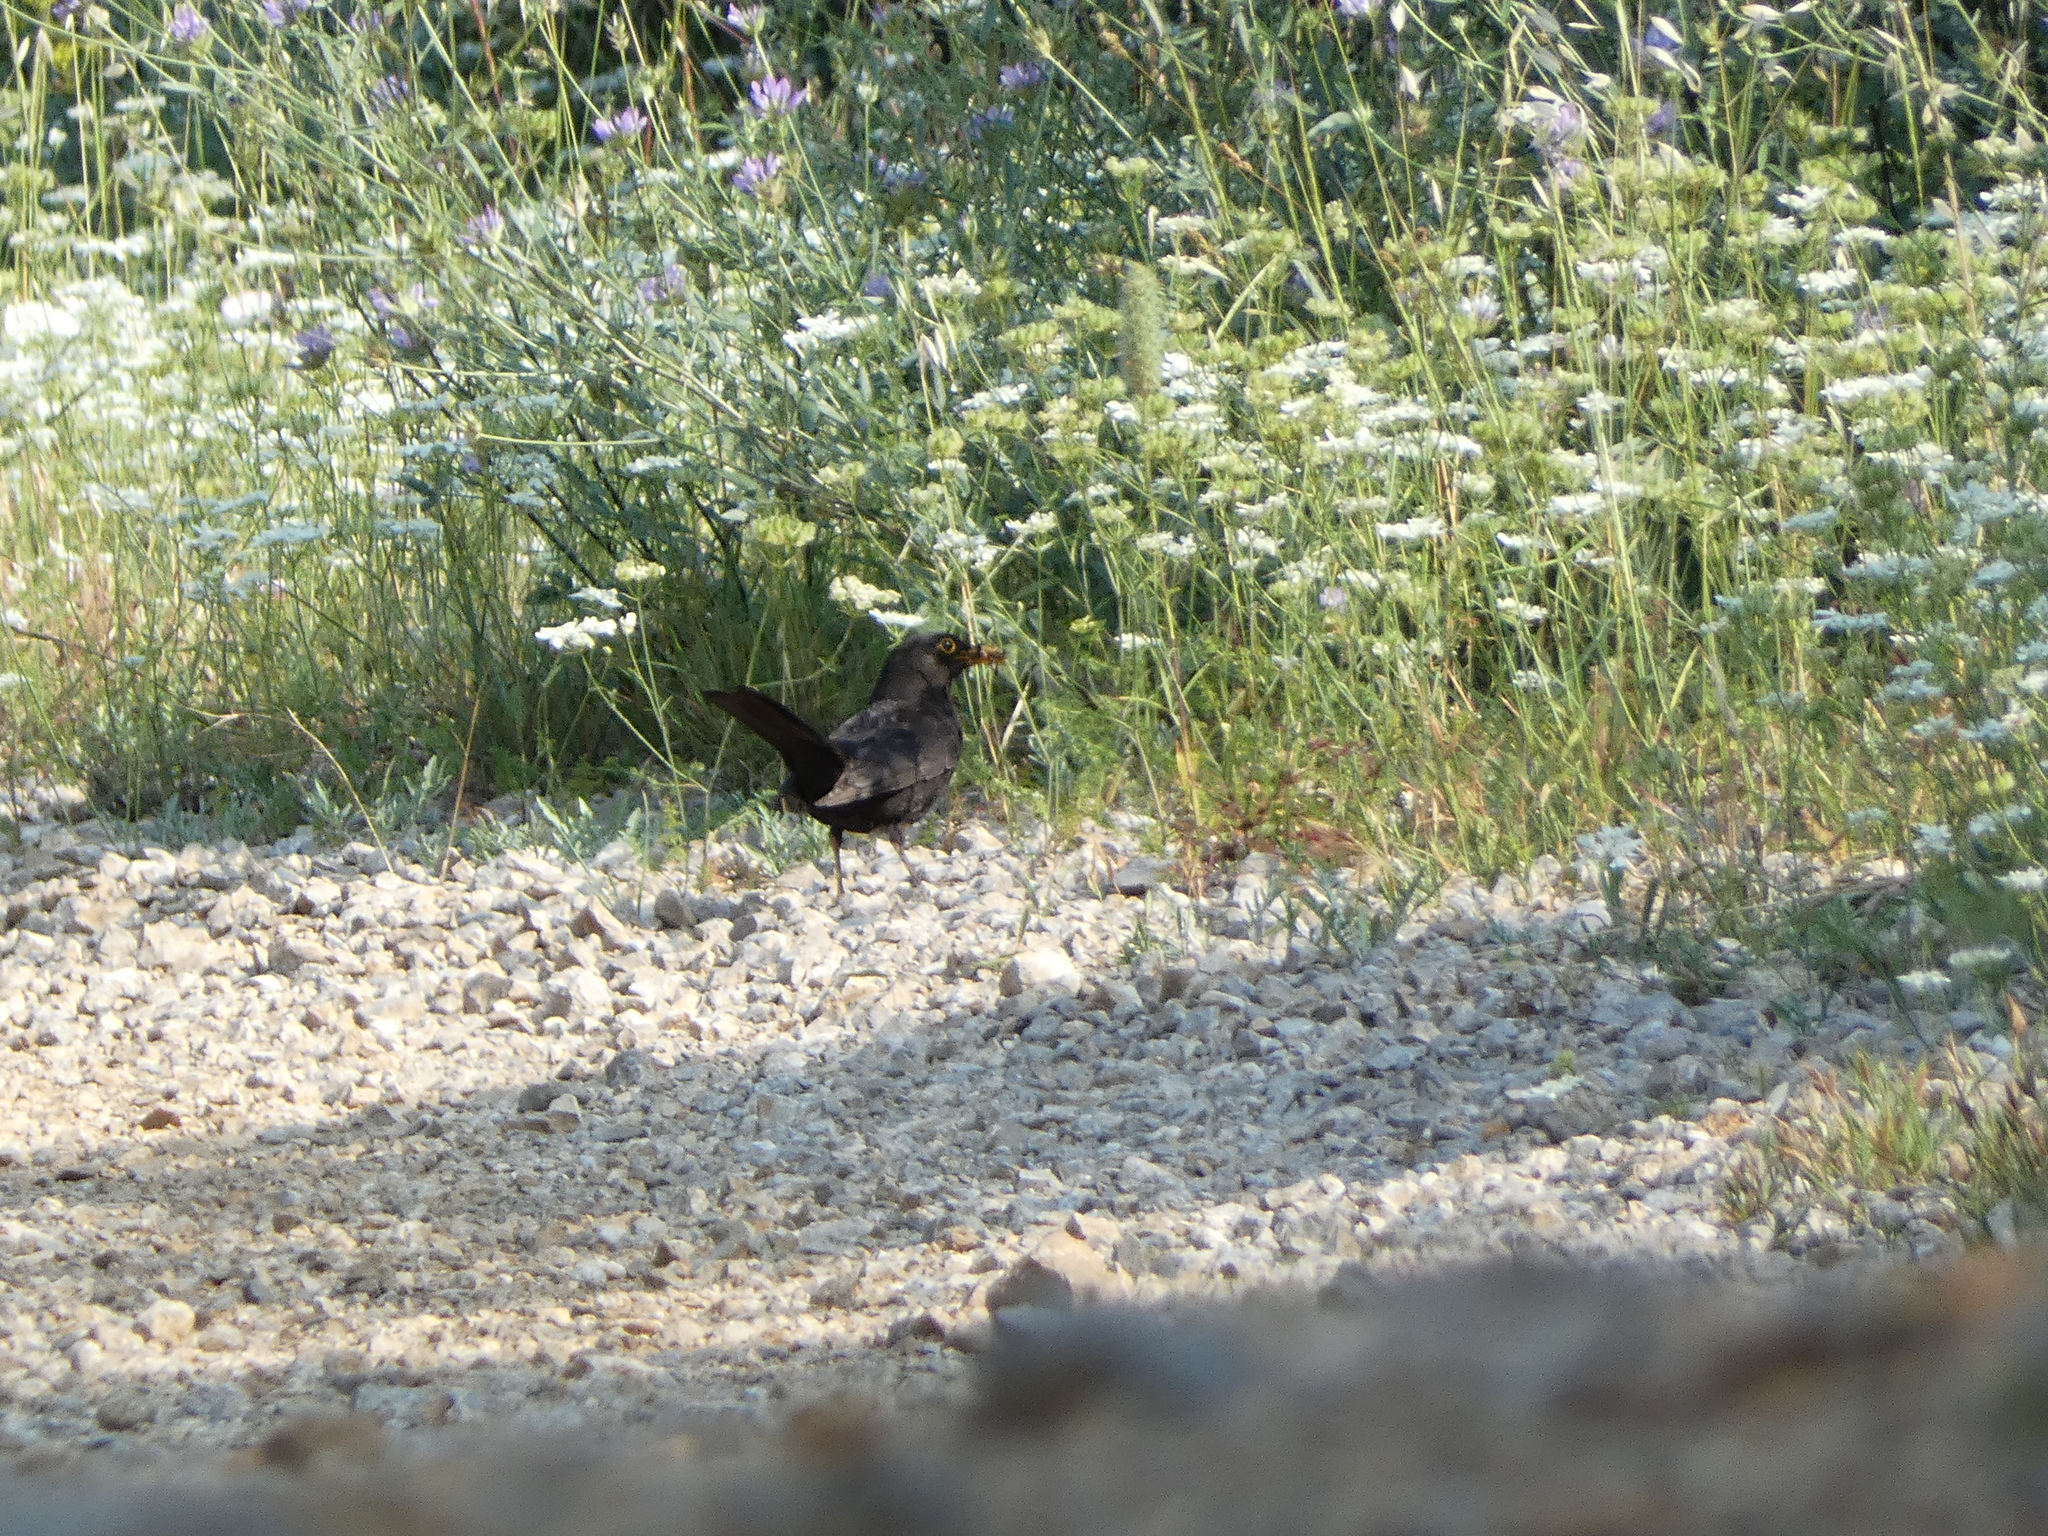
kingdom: Animalia
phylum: Chordata
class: Aves
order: Passeriformes
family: Turdidae
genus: Turdus
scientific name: Turdus merula
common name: Common blackbird
